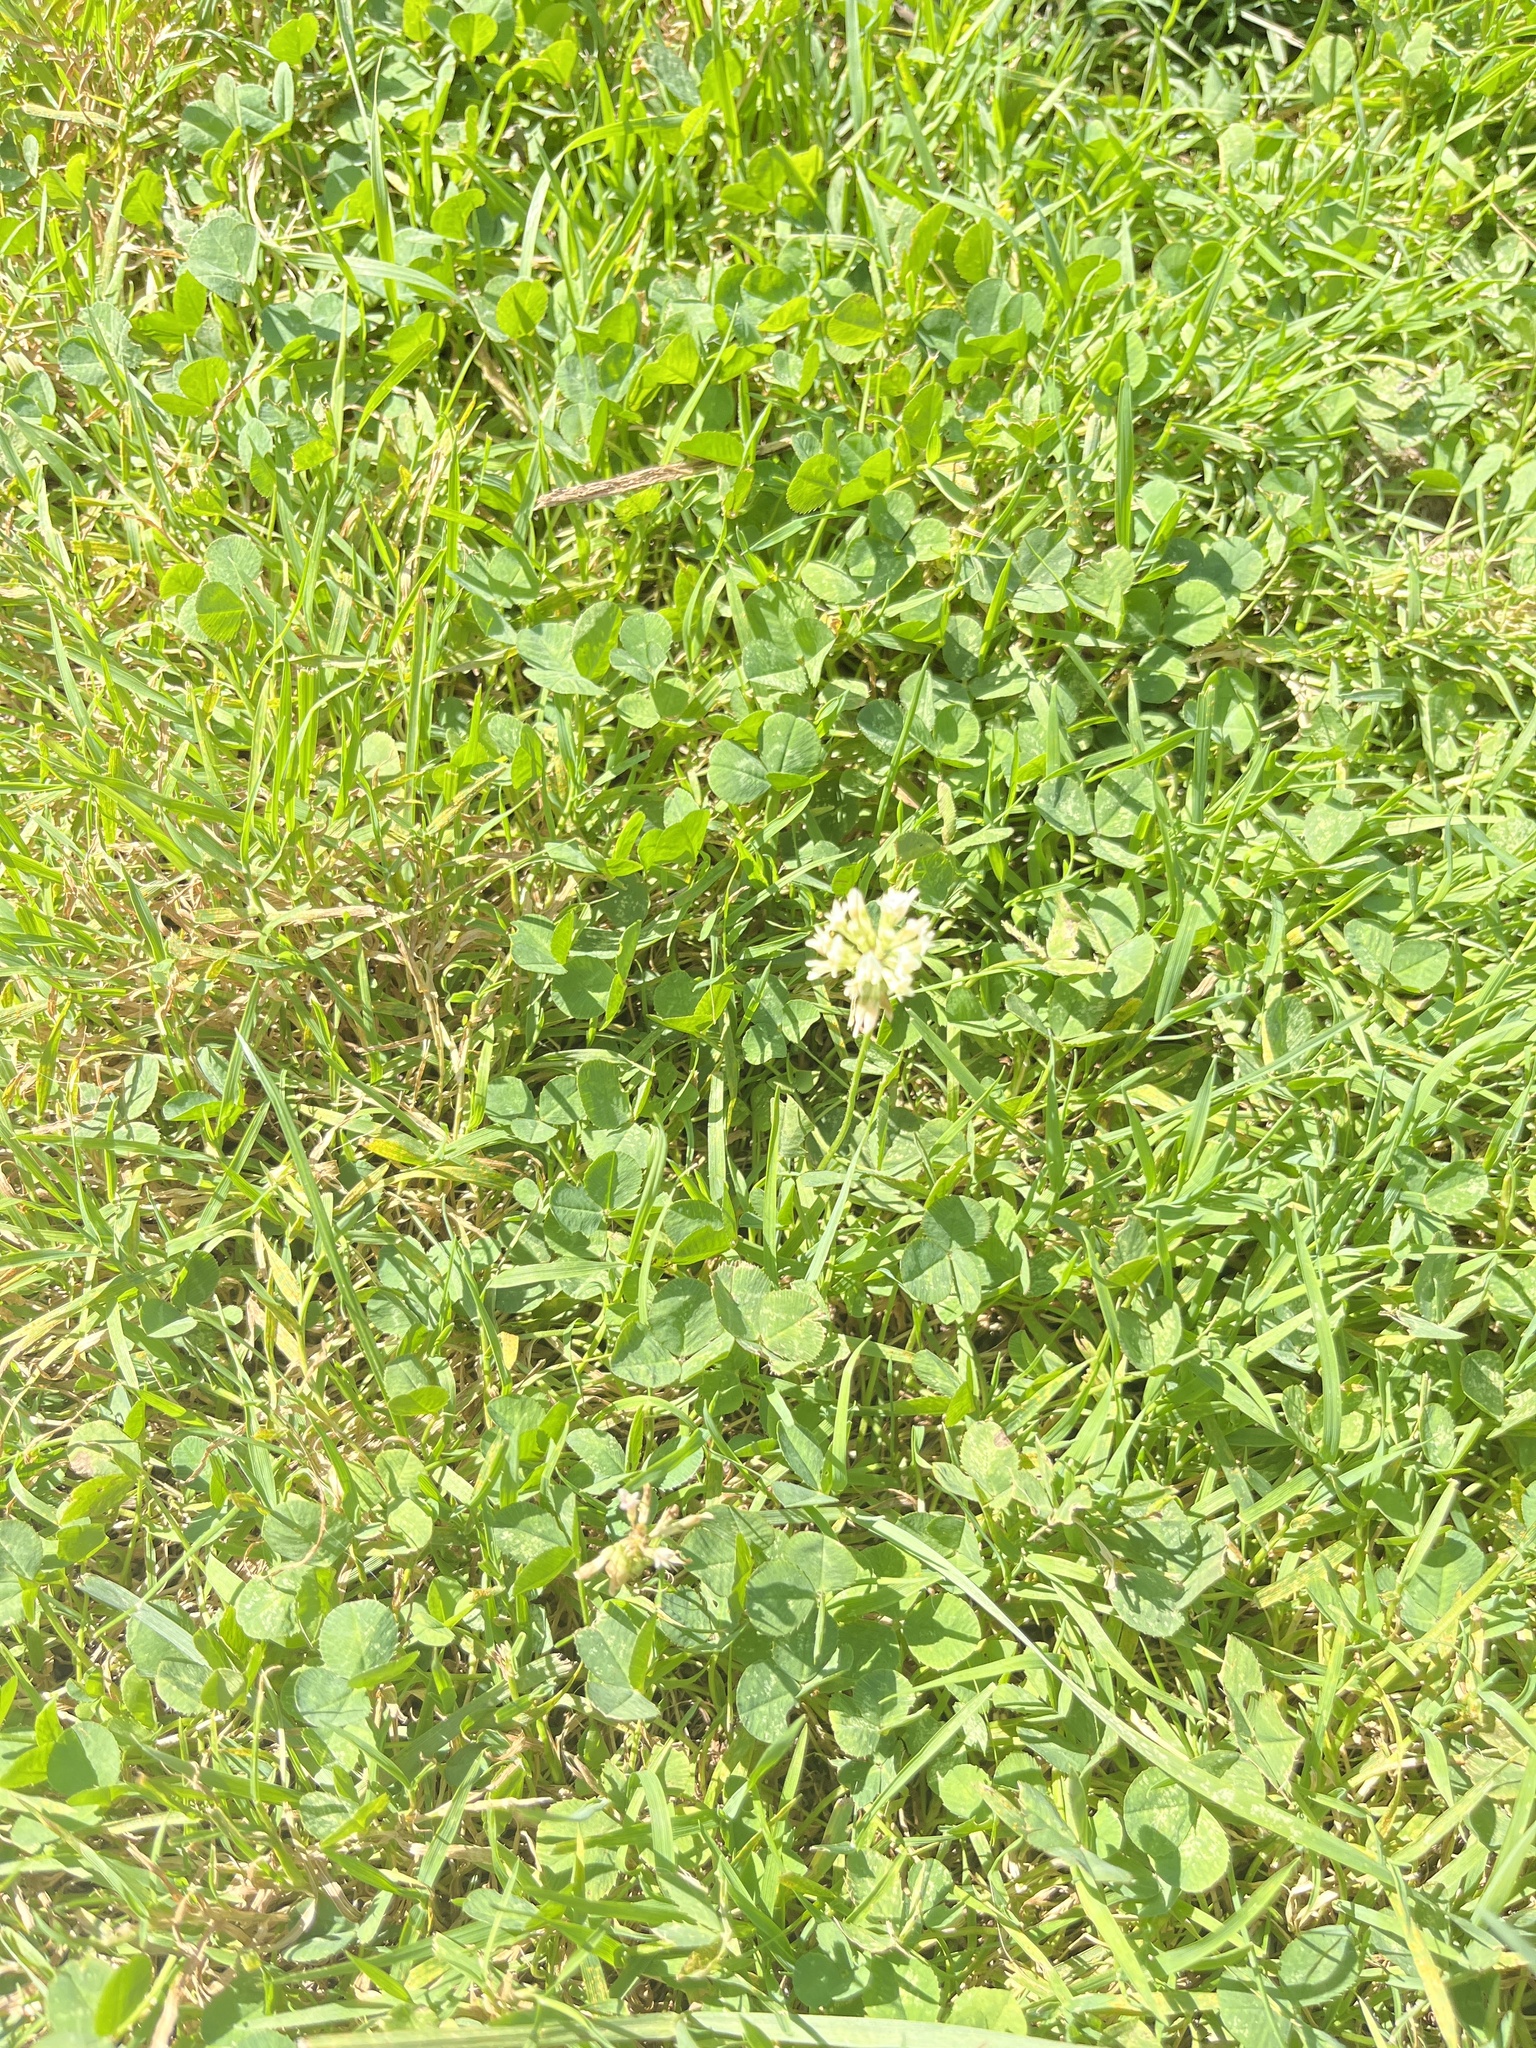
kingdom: Plantae
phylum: Tracheophyta
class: Magnoliopsida
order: Fabales
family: Fabaceae
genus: Trifolium
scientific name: Trifolium repens
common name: White clover
